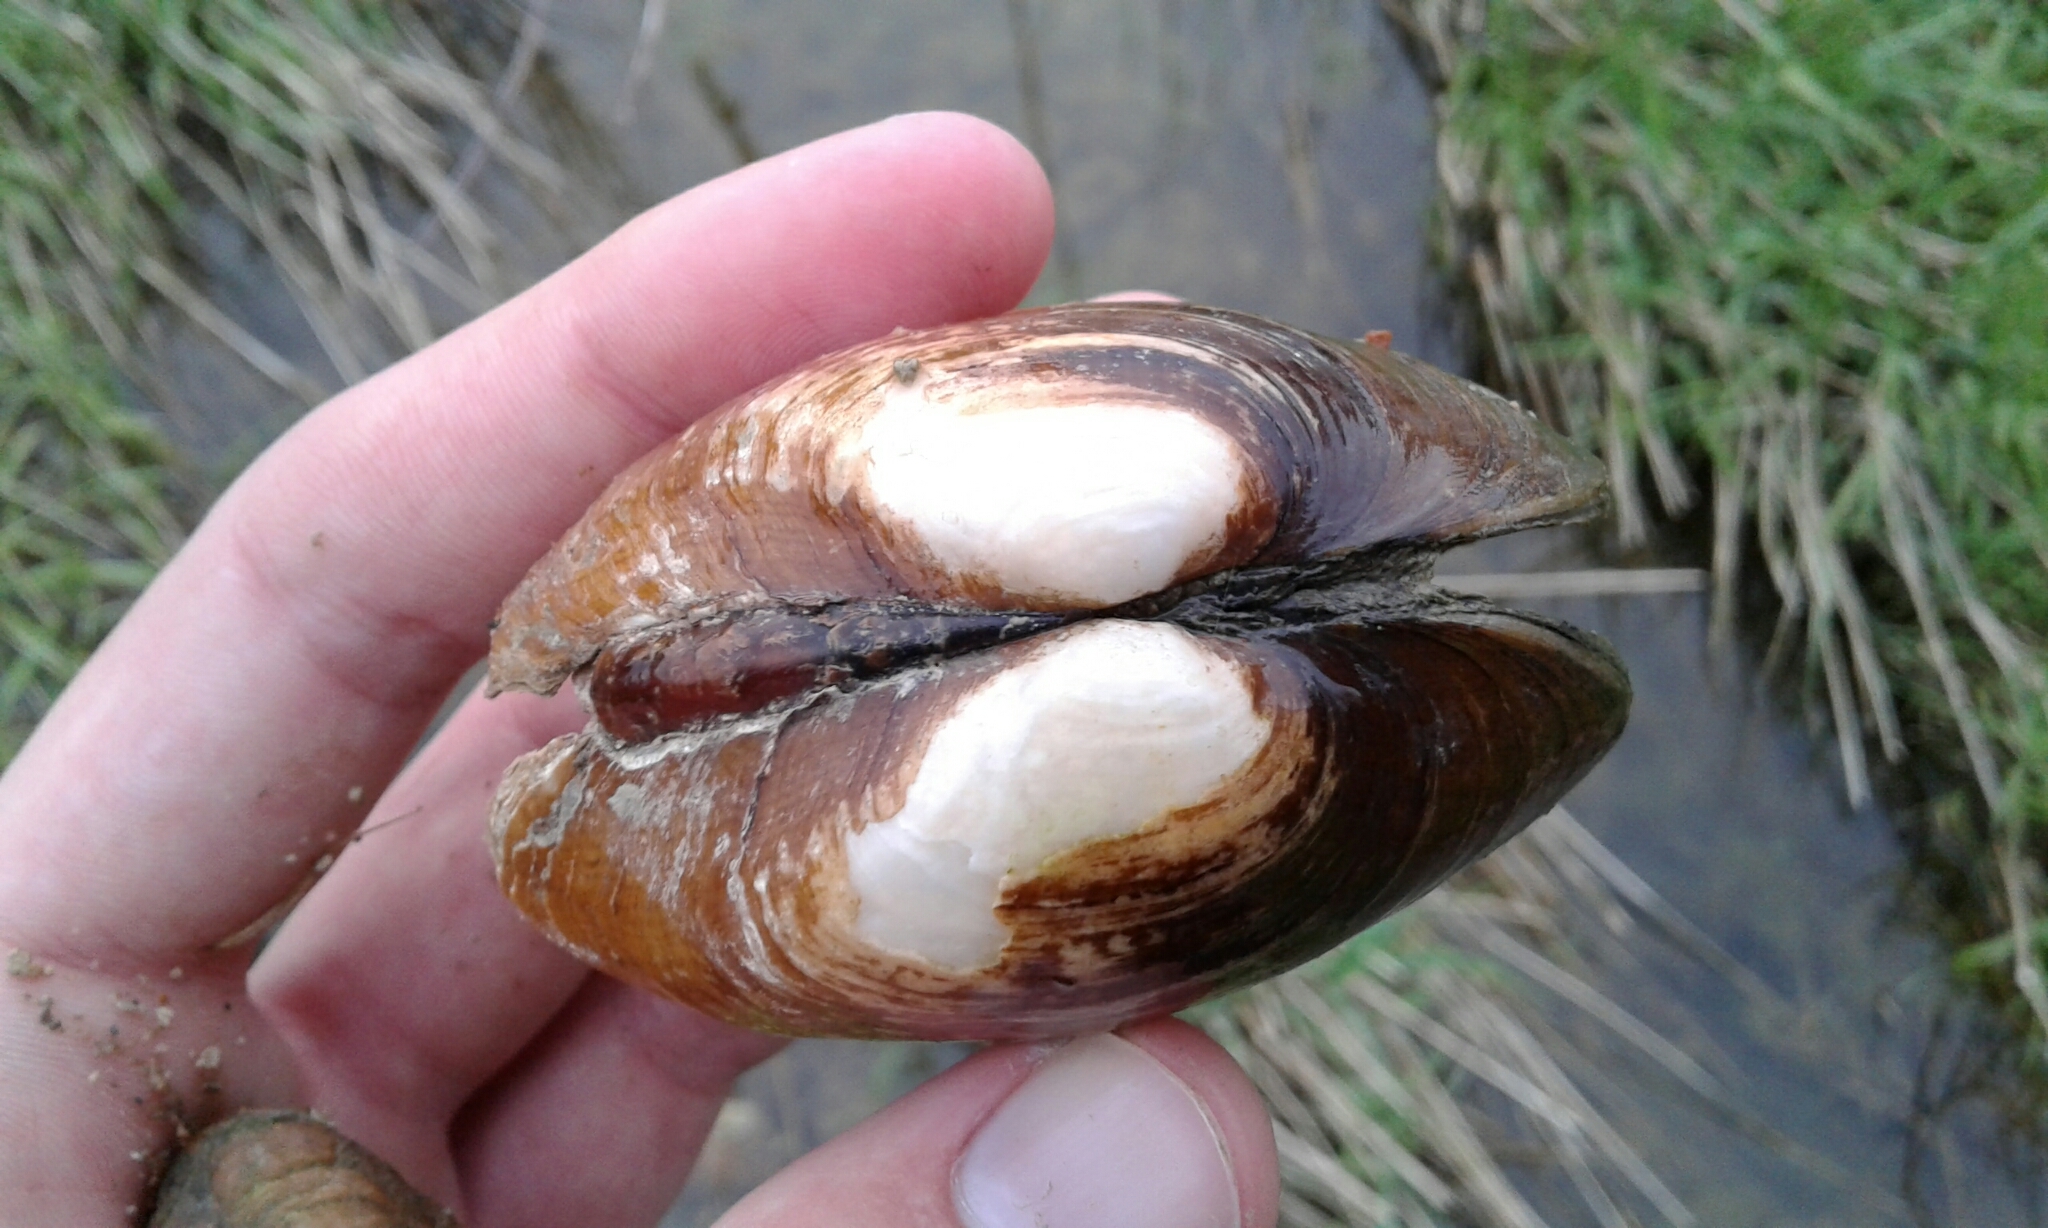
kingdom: Animalia
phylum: Mollusca
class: Bivalvia
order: Unionida
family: Unionidae
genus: Lampsilis
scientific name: Lampsilis fasciola
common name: Wavyrayed lampmussel
